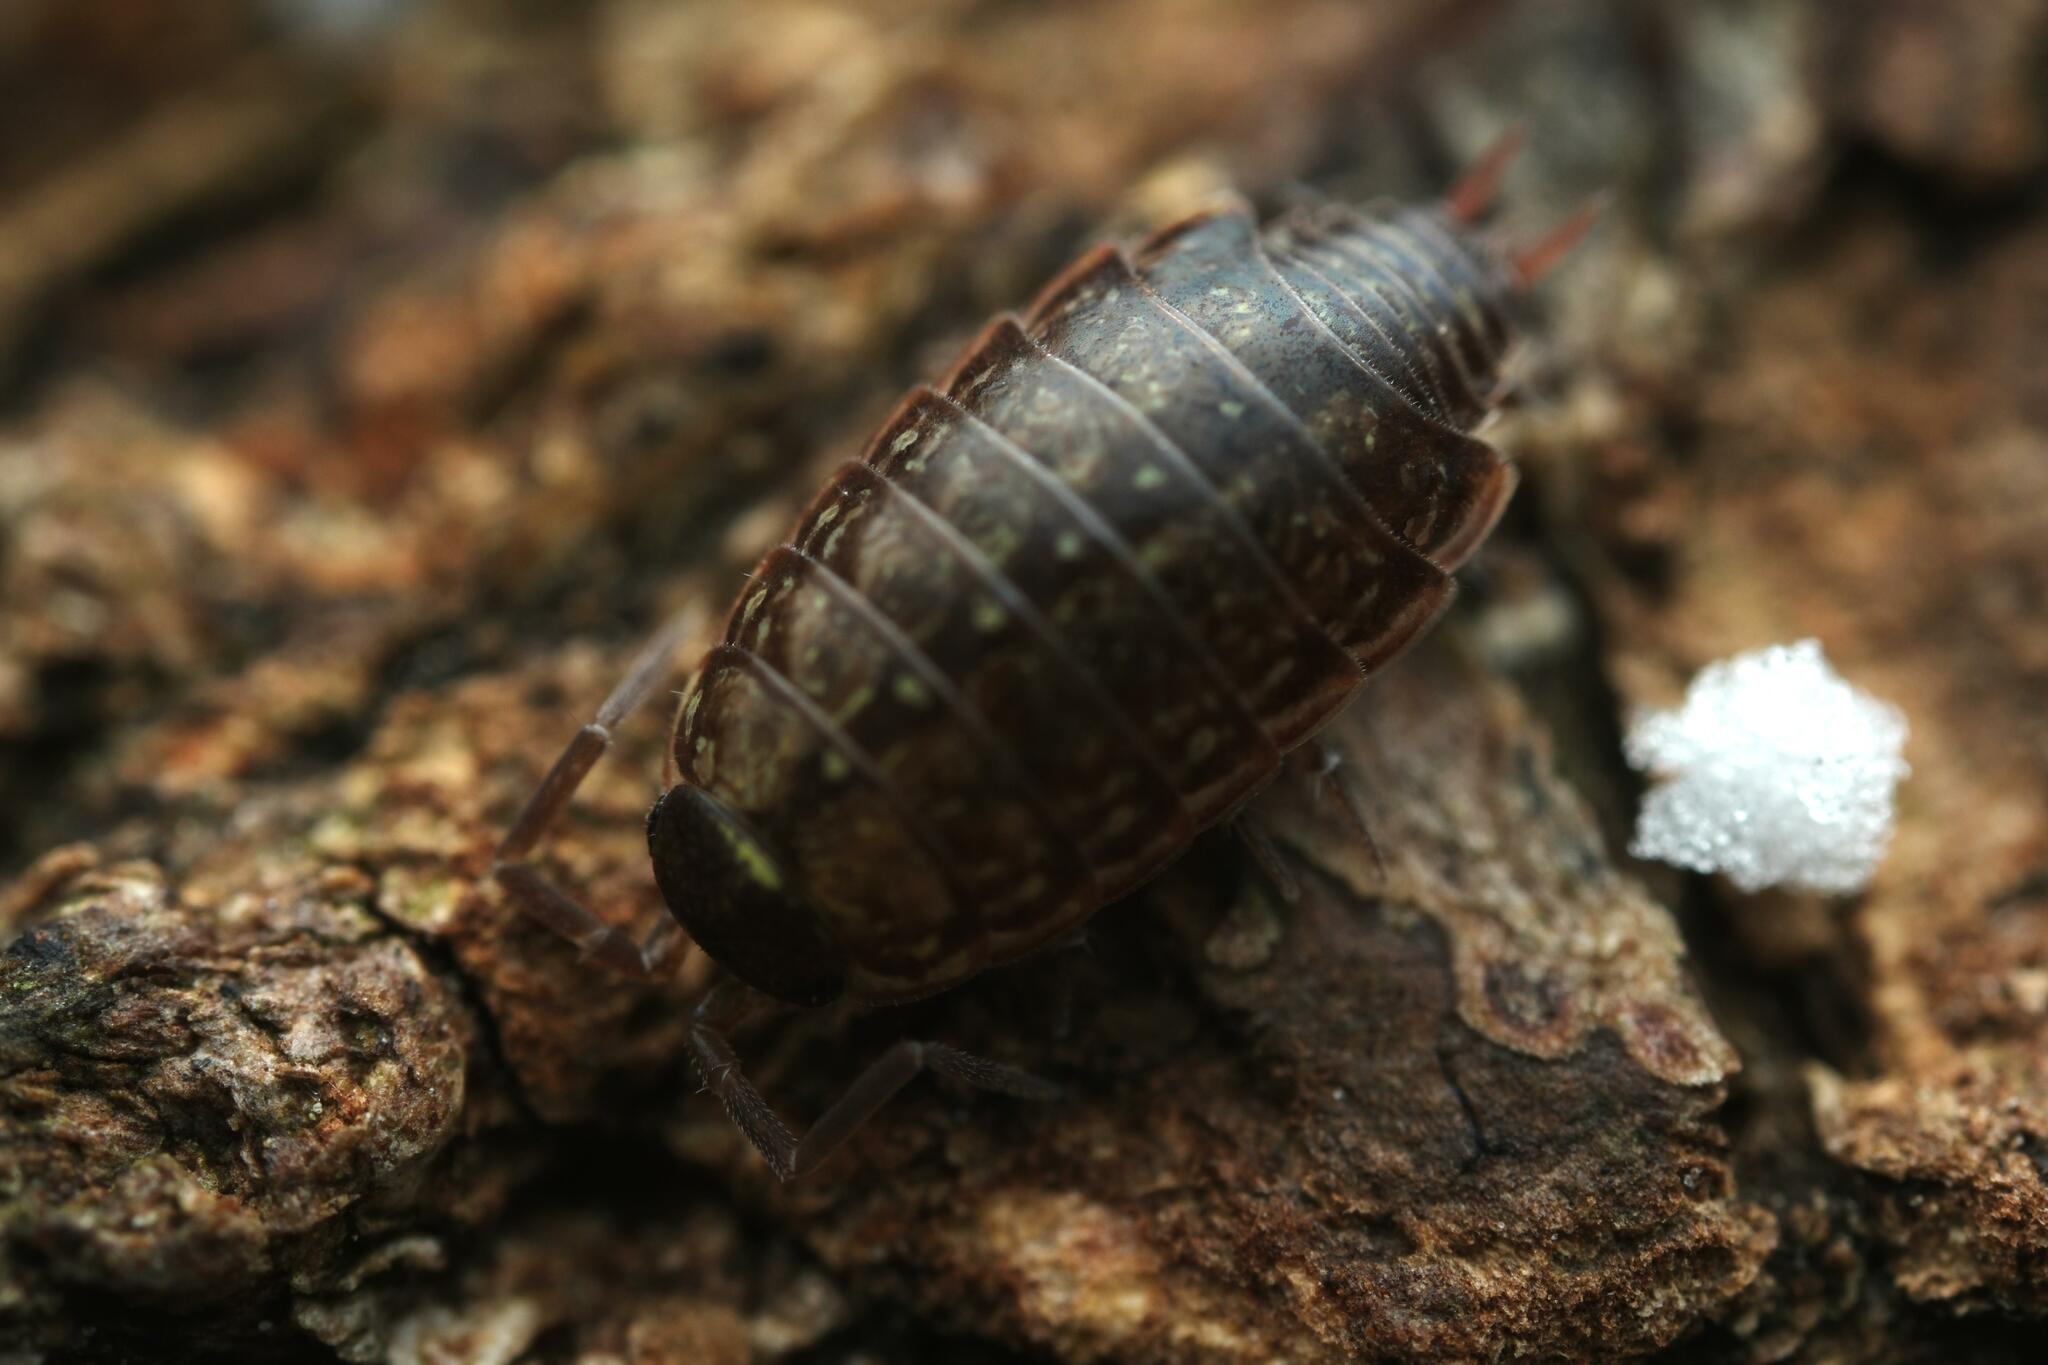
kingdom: Animalia
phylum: Arthropoda
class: Malacostraca
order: Isopoda
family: Philosciidae
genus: Philoscia
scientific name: Philoscia muscorum
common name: Common striped woodlouse
